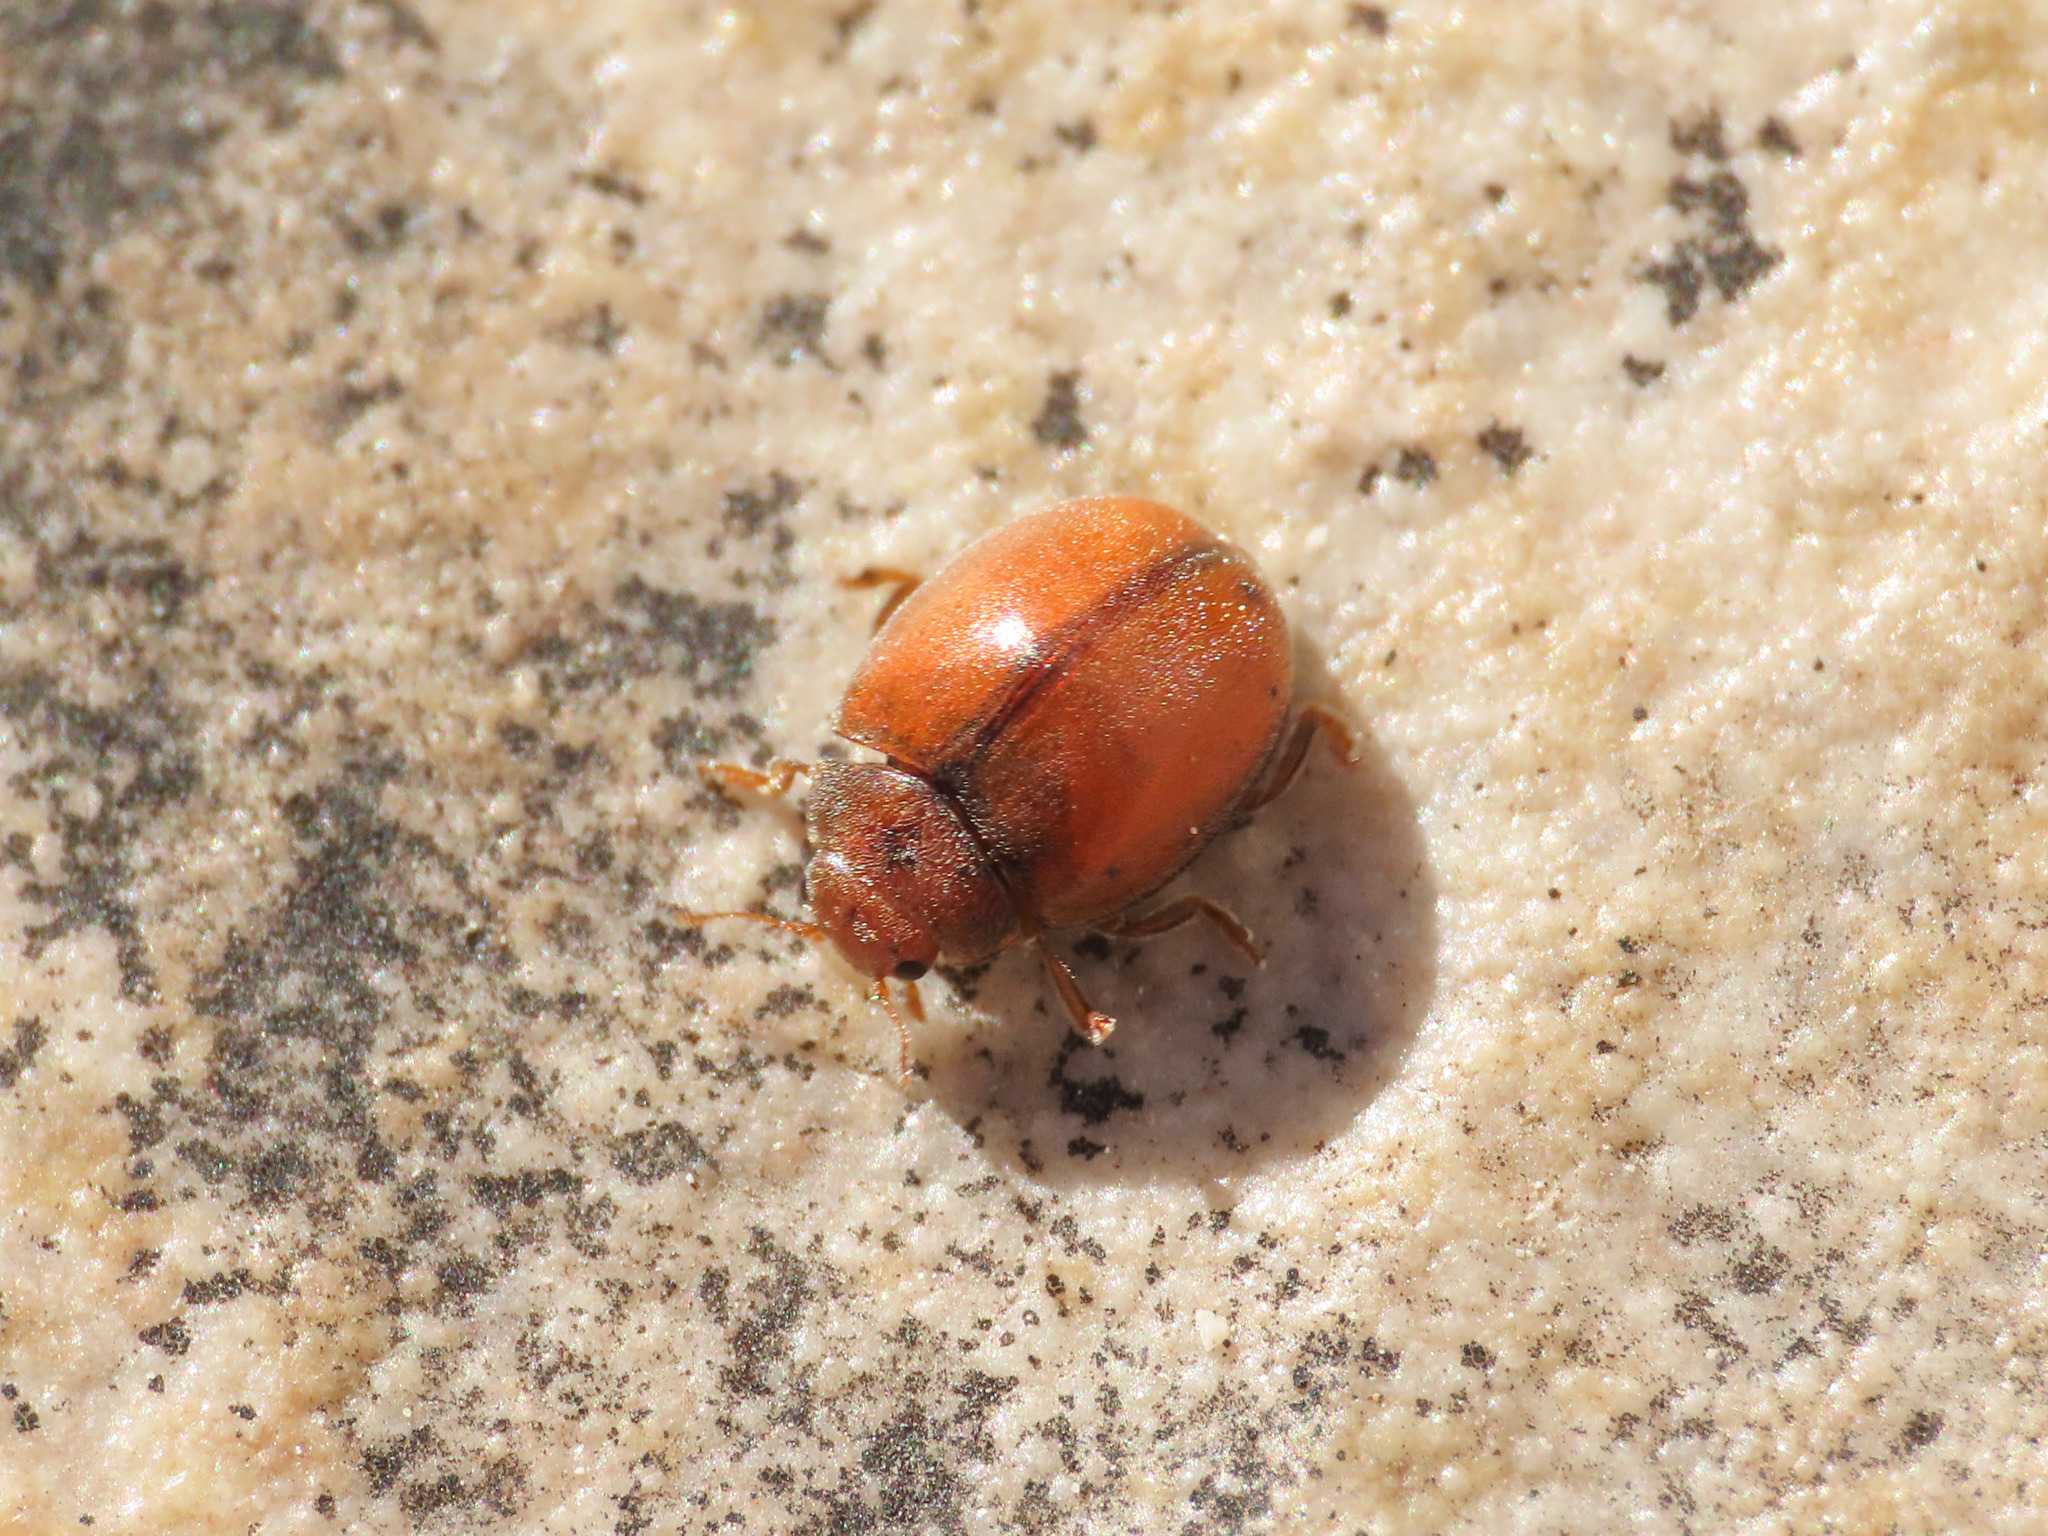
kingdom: Animalia
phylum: Arthropoda
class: Insecta
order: Coleoptera
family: Coccinellidae
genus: Subcoccinella
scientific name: Subcoccinella vigintiquatuorpunctata
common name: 24-spot ladybird
